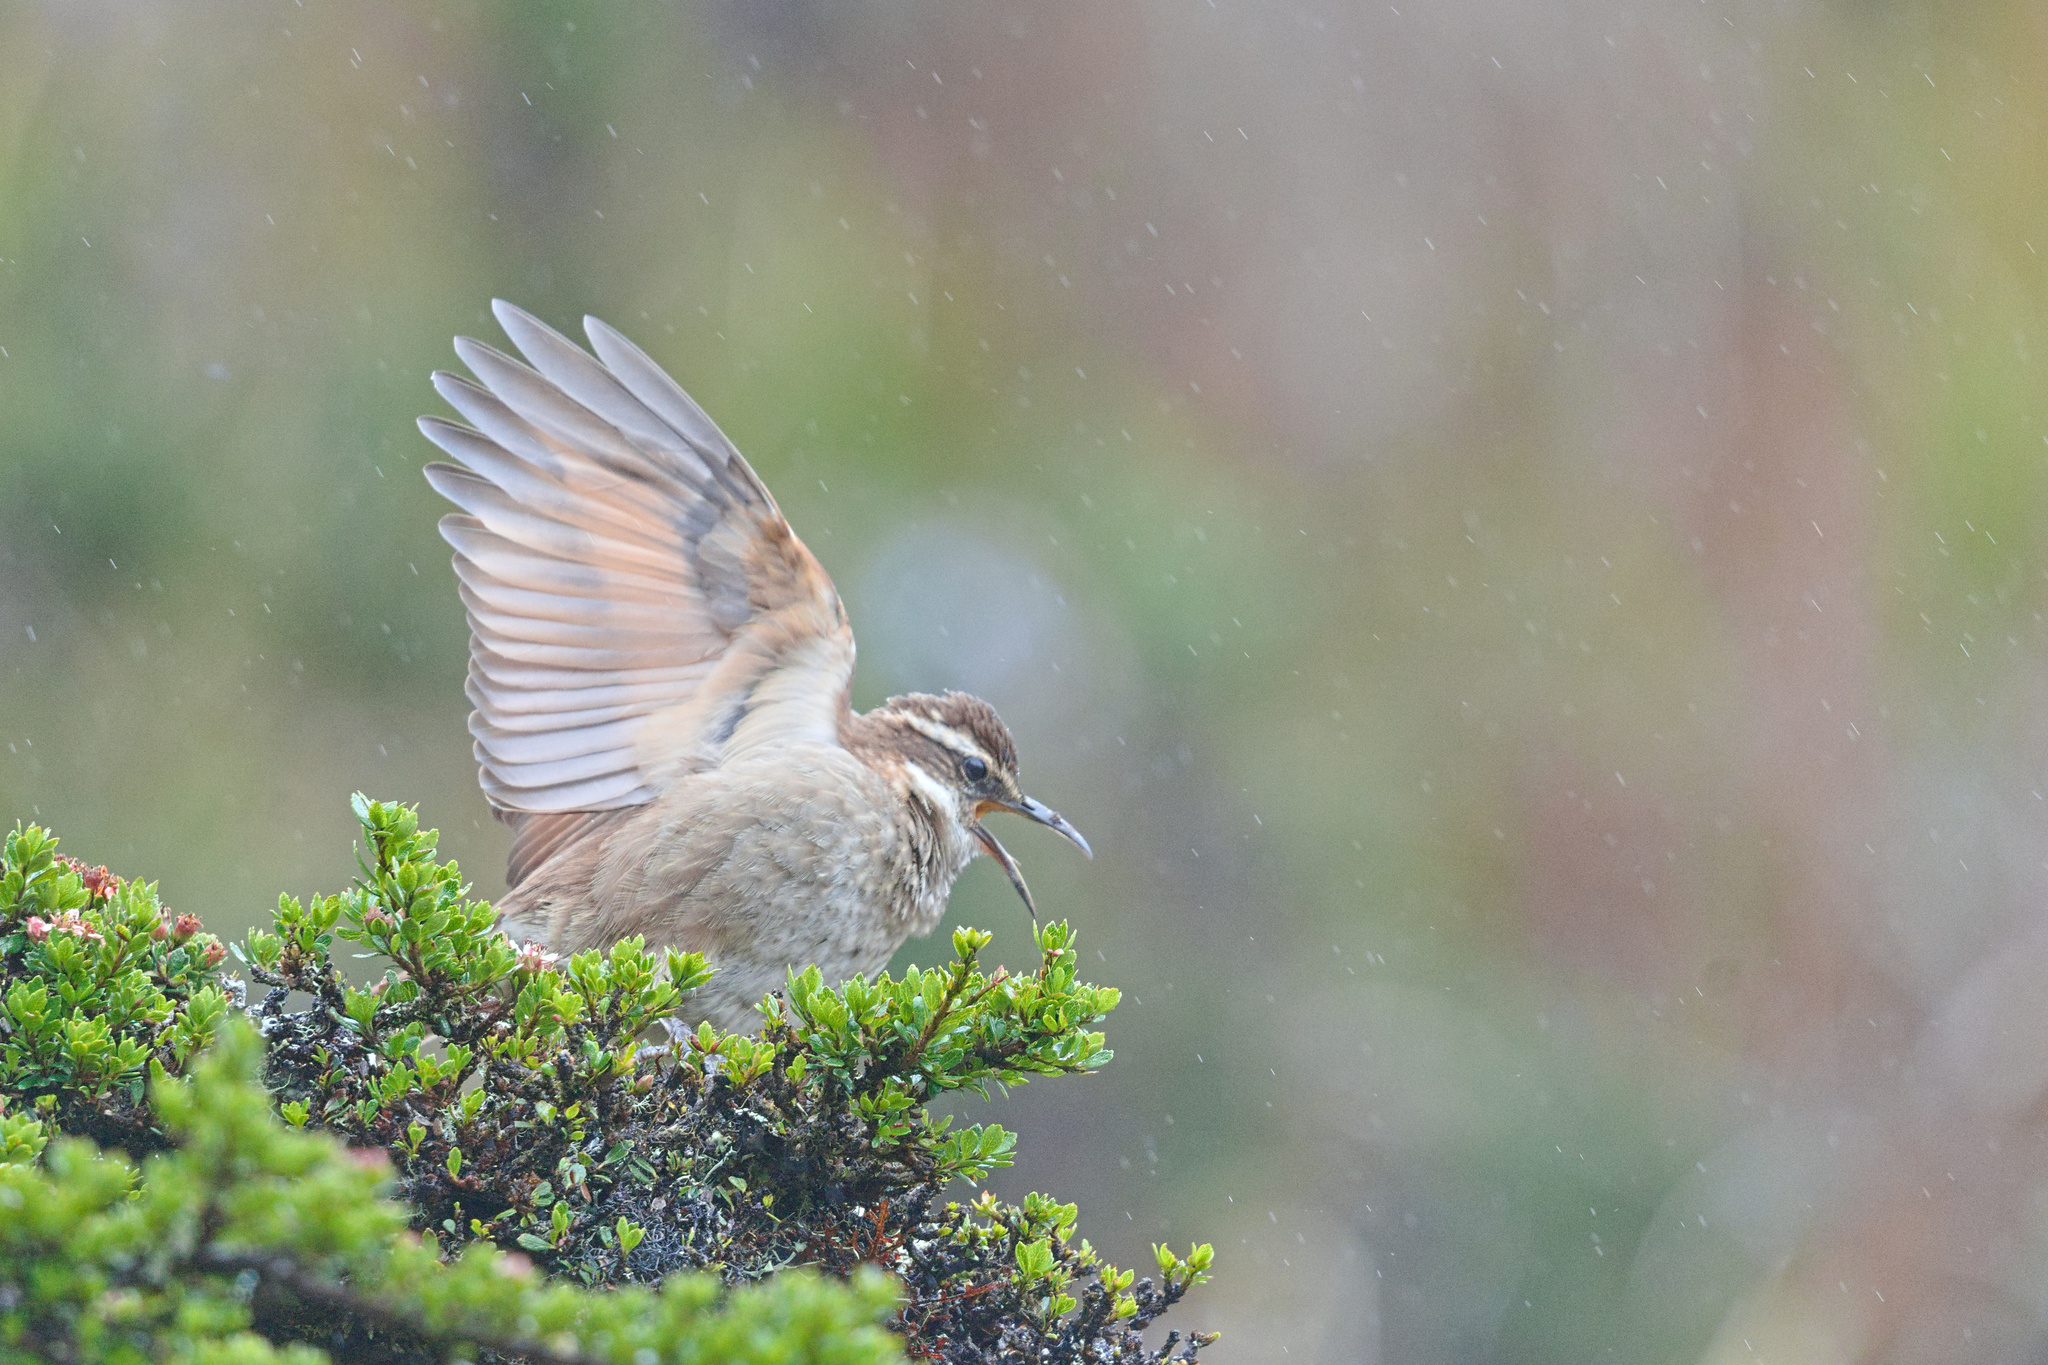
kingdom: Animalia
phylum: Chordata
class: Aves
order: Passeriformes
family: Furnariidae
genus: Cinclodes
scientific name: Cinclodes excelsior
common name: Stout-billed cinclodes
